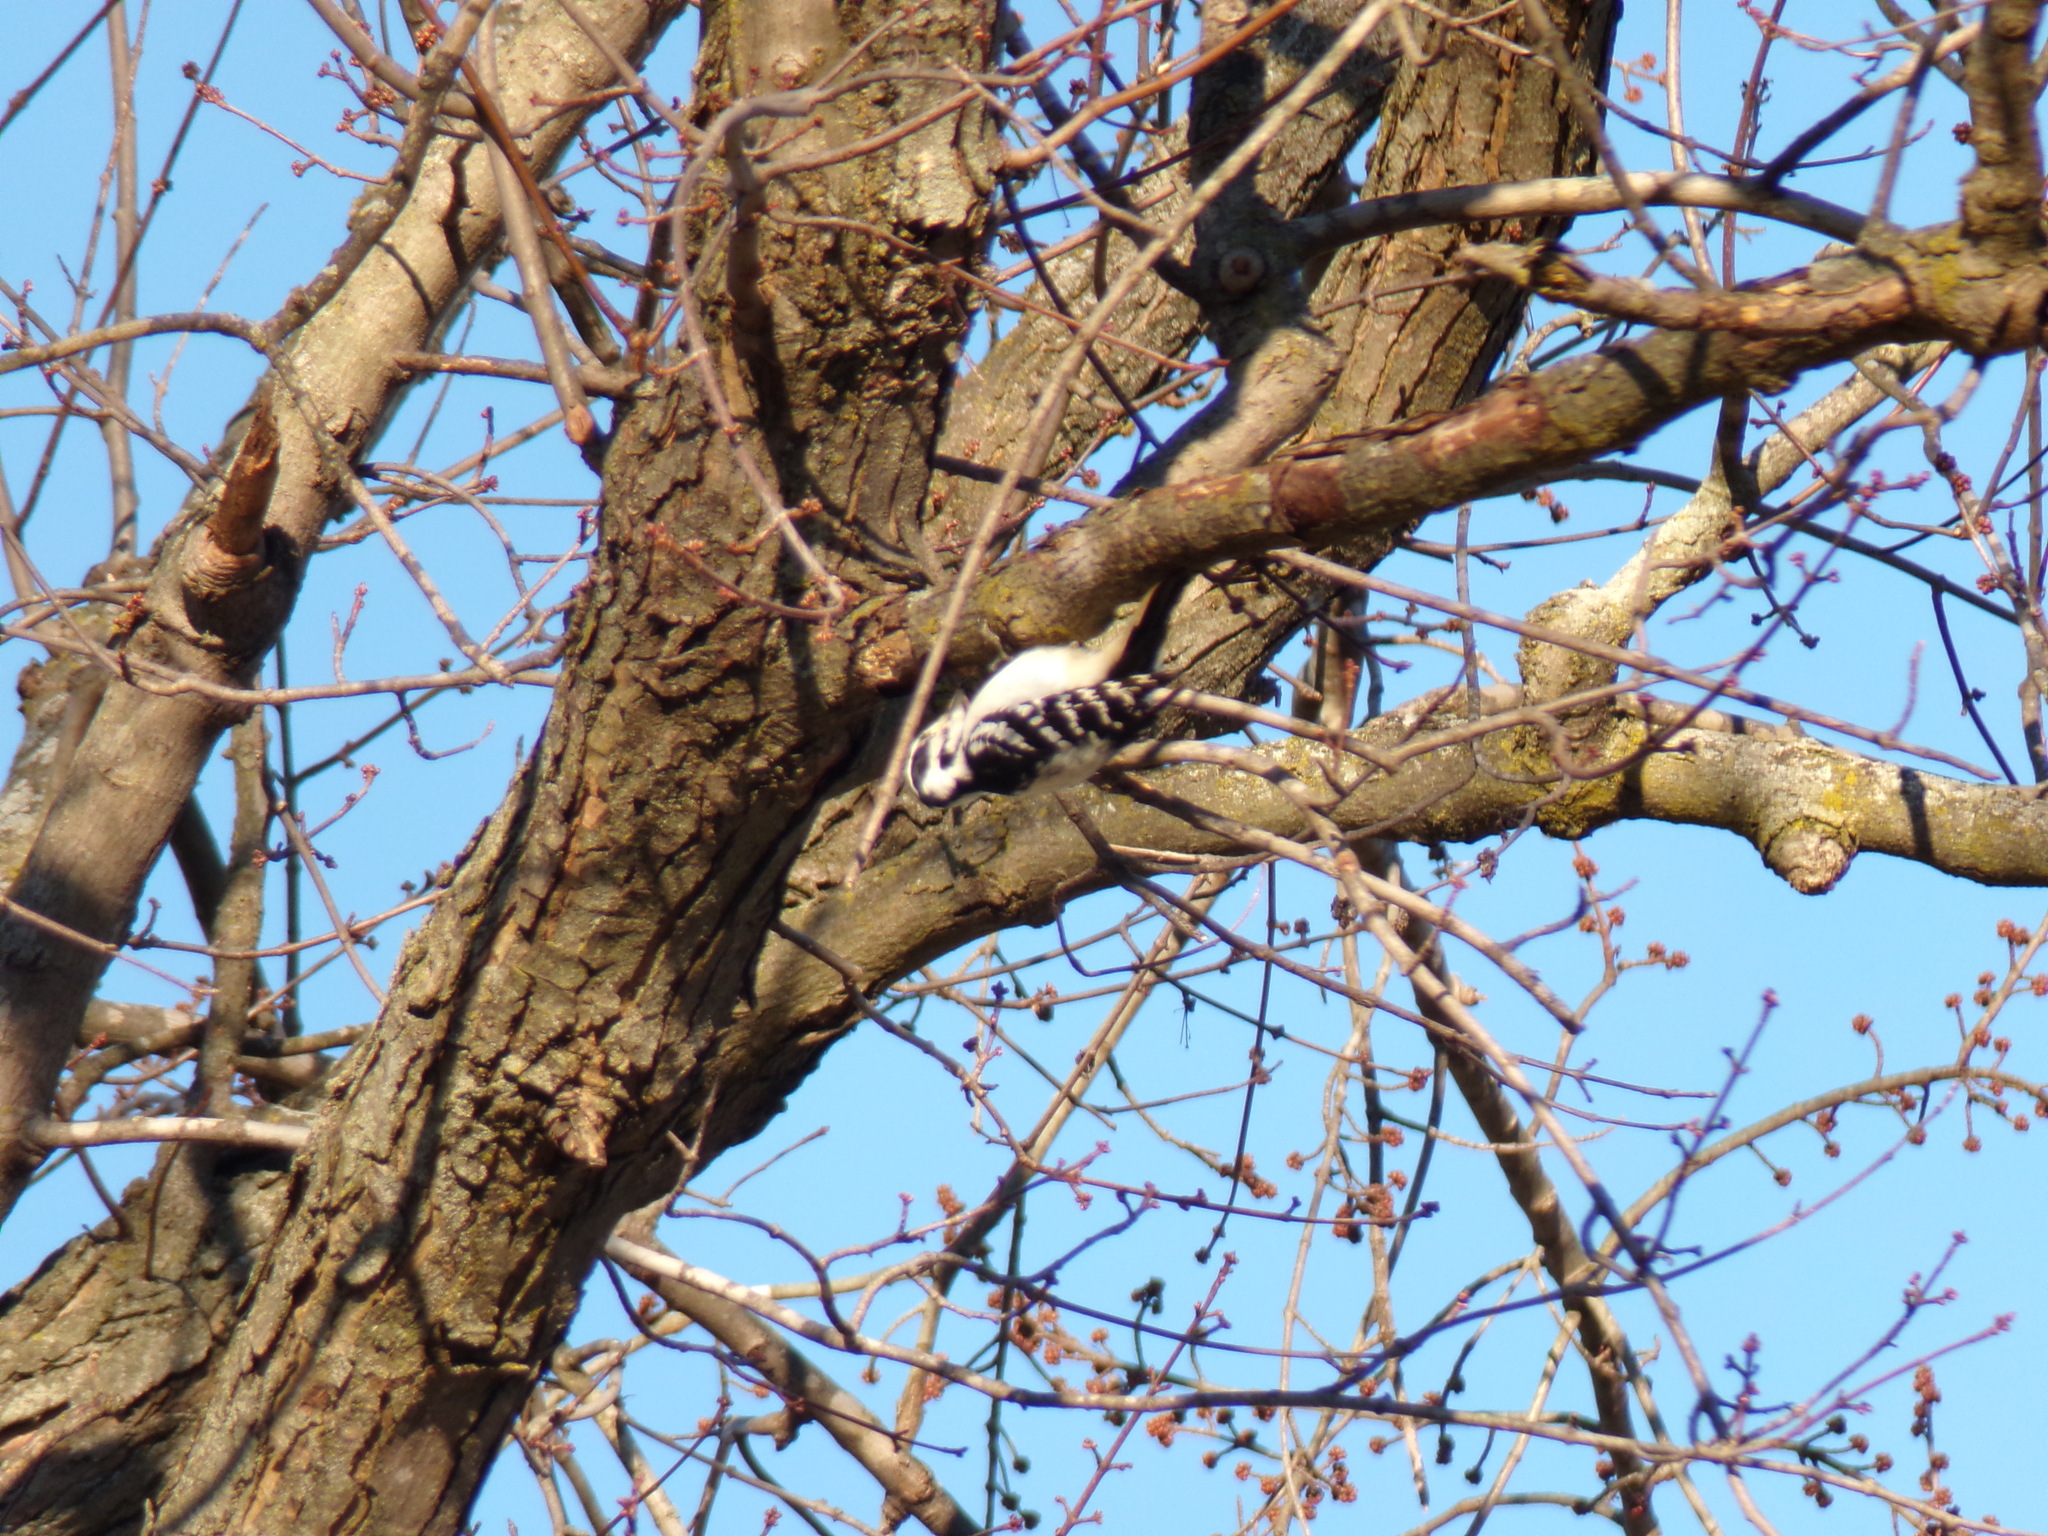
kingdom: Animalia
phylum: Chordata
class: Aves
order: Piciformes
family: Picidae
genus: Leuconotopicus
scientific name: Leuconotopicus villosus
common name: Hairy woodpecker
